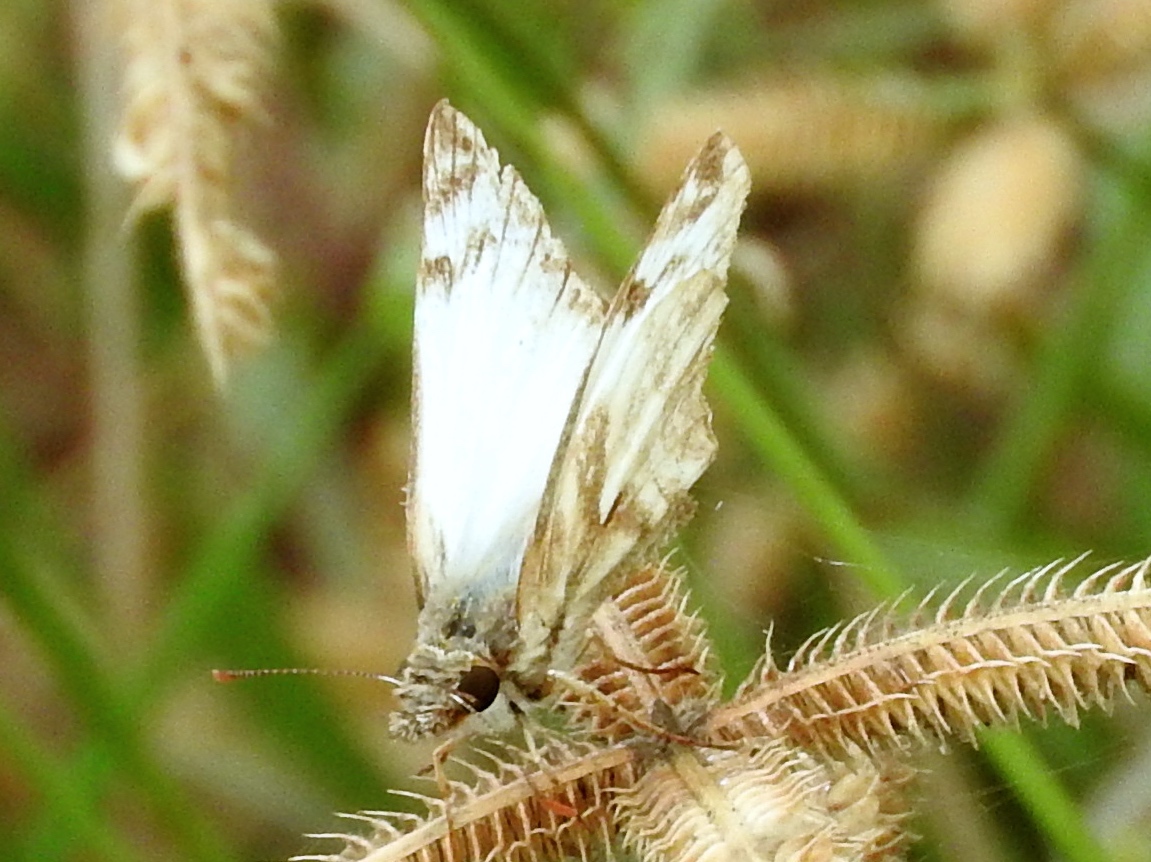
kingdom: Animalia
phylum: Arthropoda
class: Insecta
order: Lepidoptera
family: Hesperiidae
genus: Heliopetes
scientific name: Heliopetes laviana
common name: Laviana white-skipper
